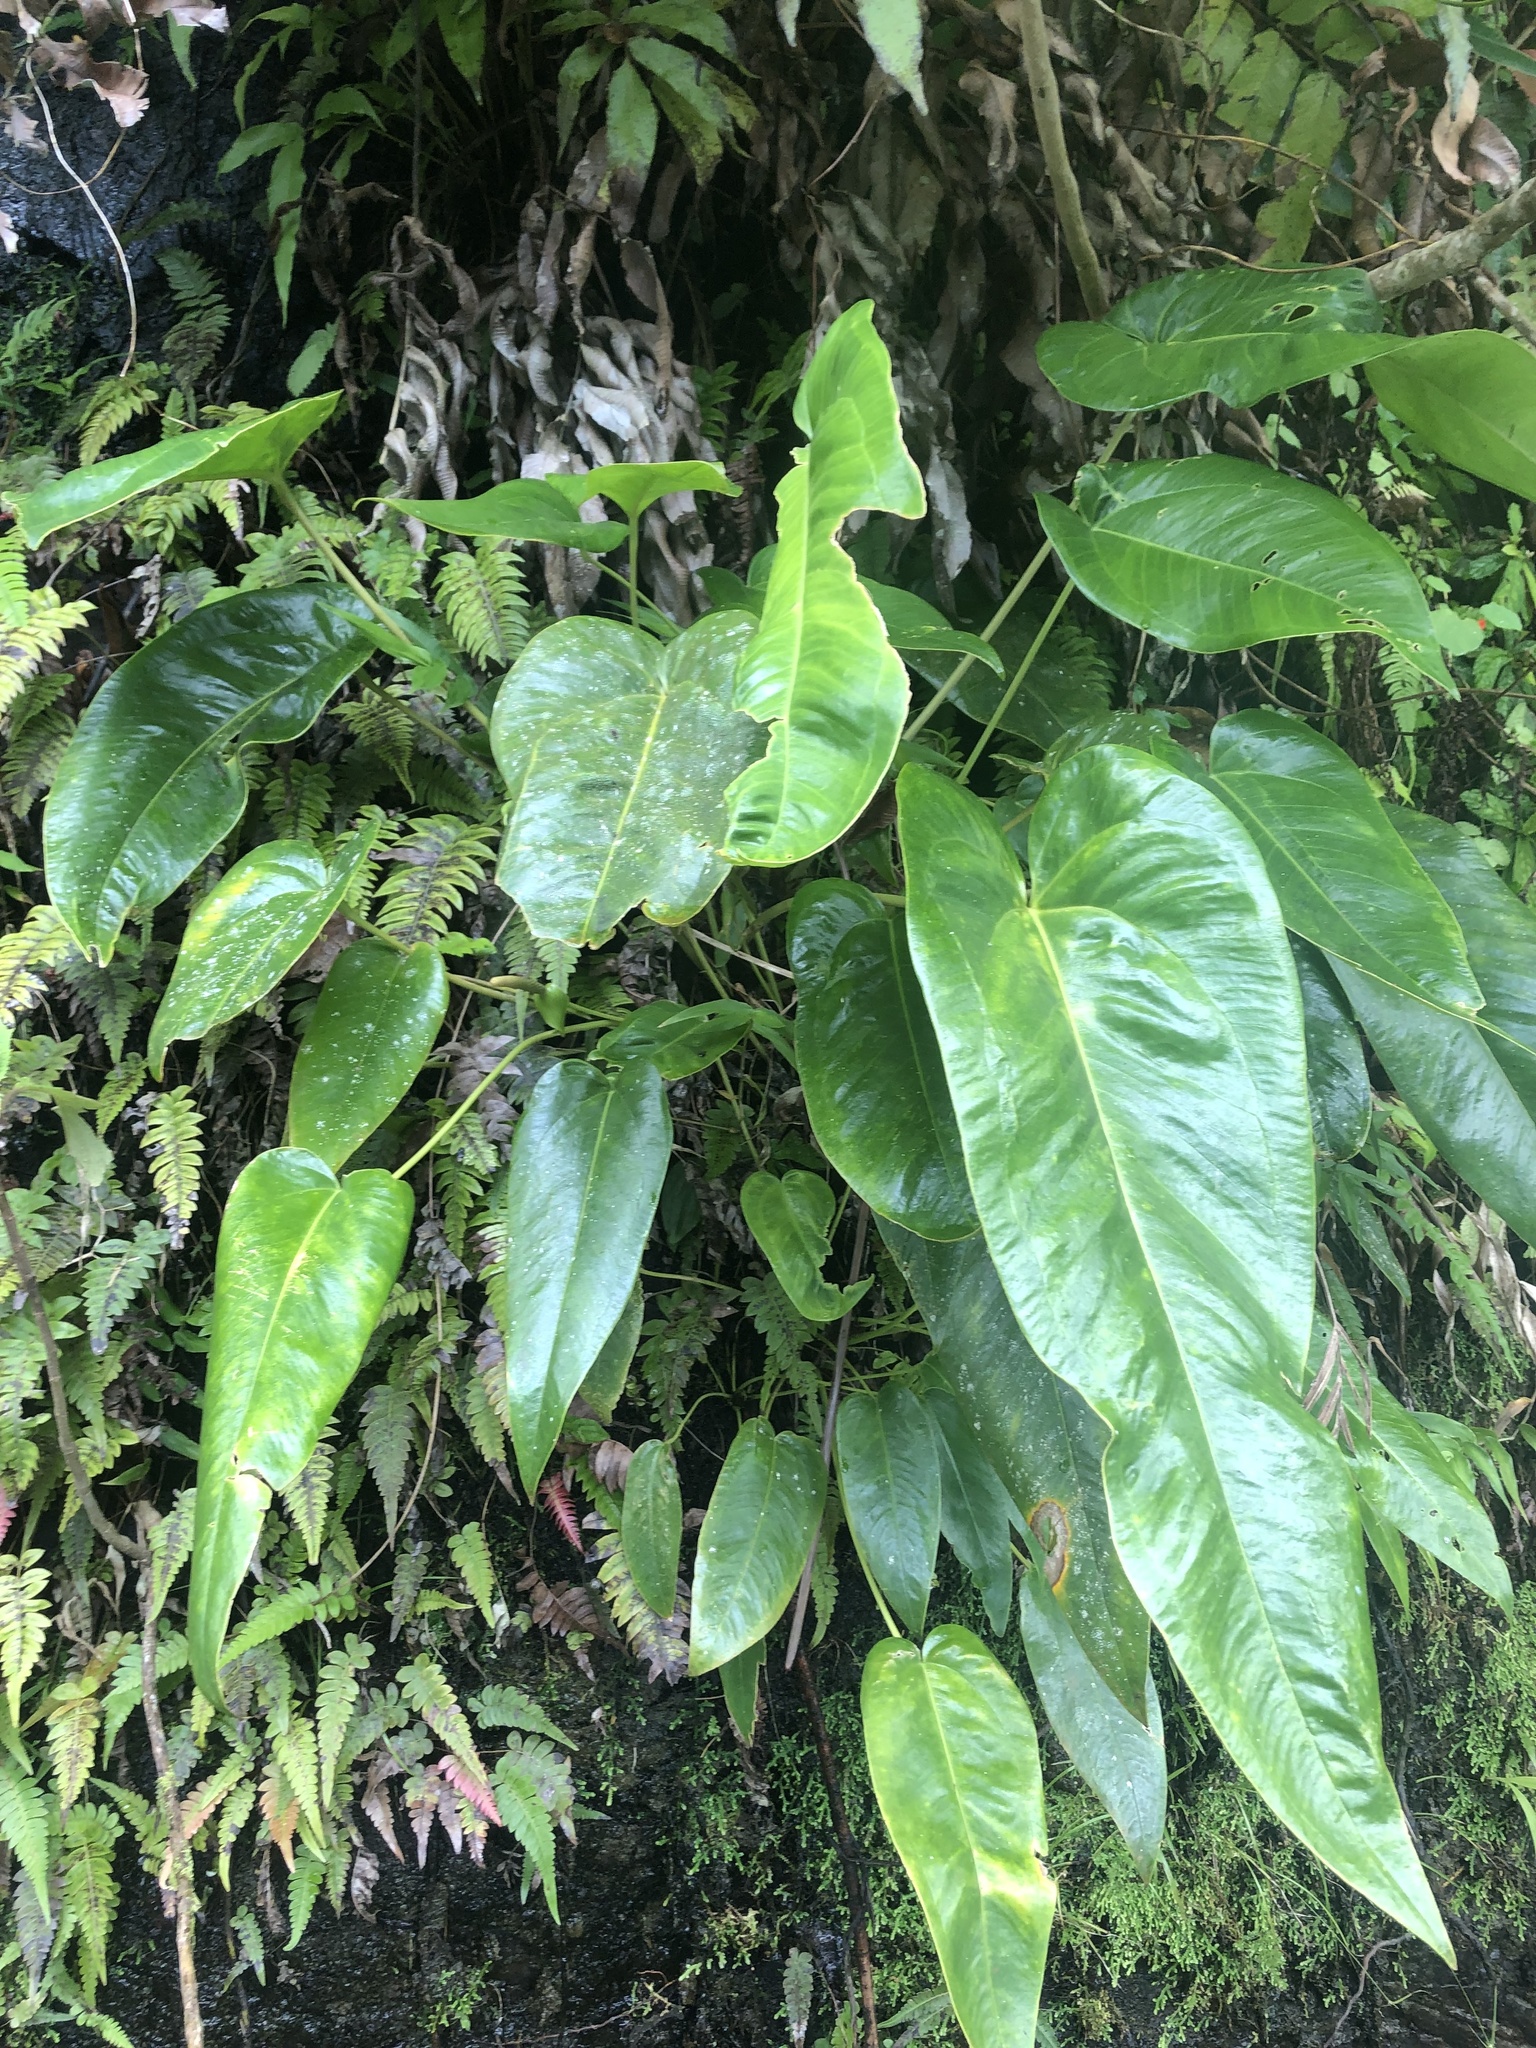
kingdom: Plantae
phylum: Tracheophyta
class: Liliopsida
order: Alismatales
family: Araceae
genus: Anthurium
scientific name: Anthurium dominicense
